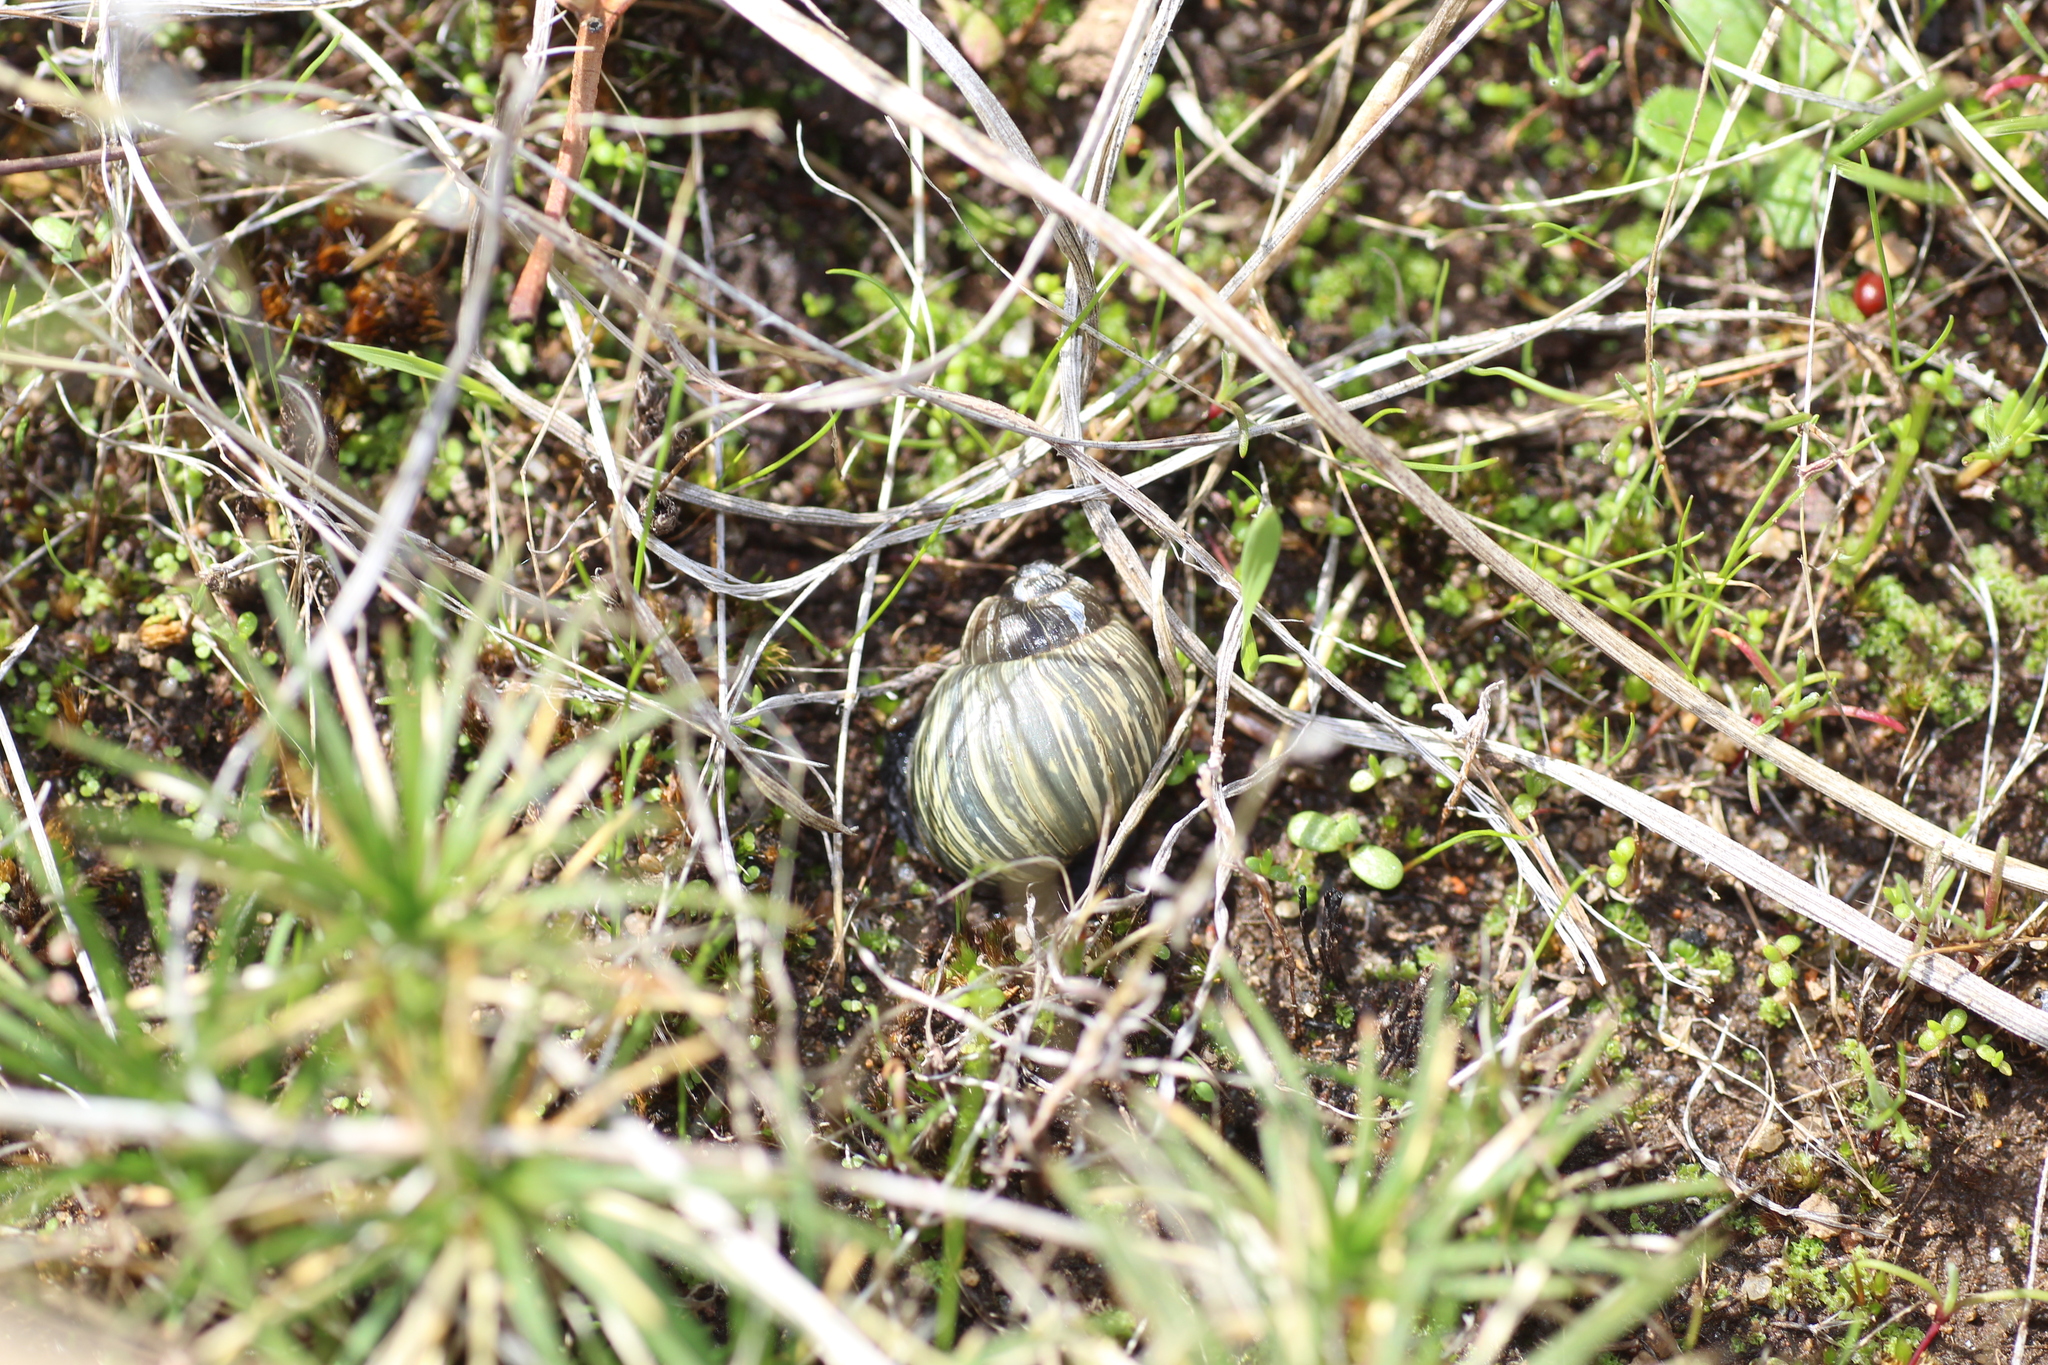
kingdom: Animalia
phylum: Mollusca
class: Gastropoda
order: Stylommatophora
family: Bothriembryontidae
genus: Bothriembryon
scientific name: Bothriembryon kendricki
